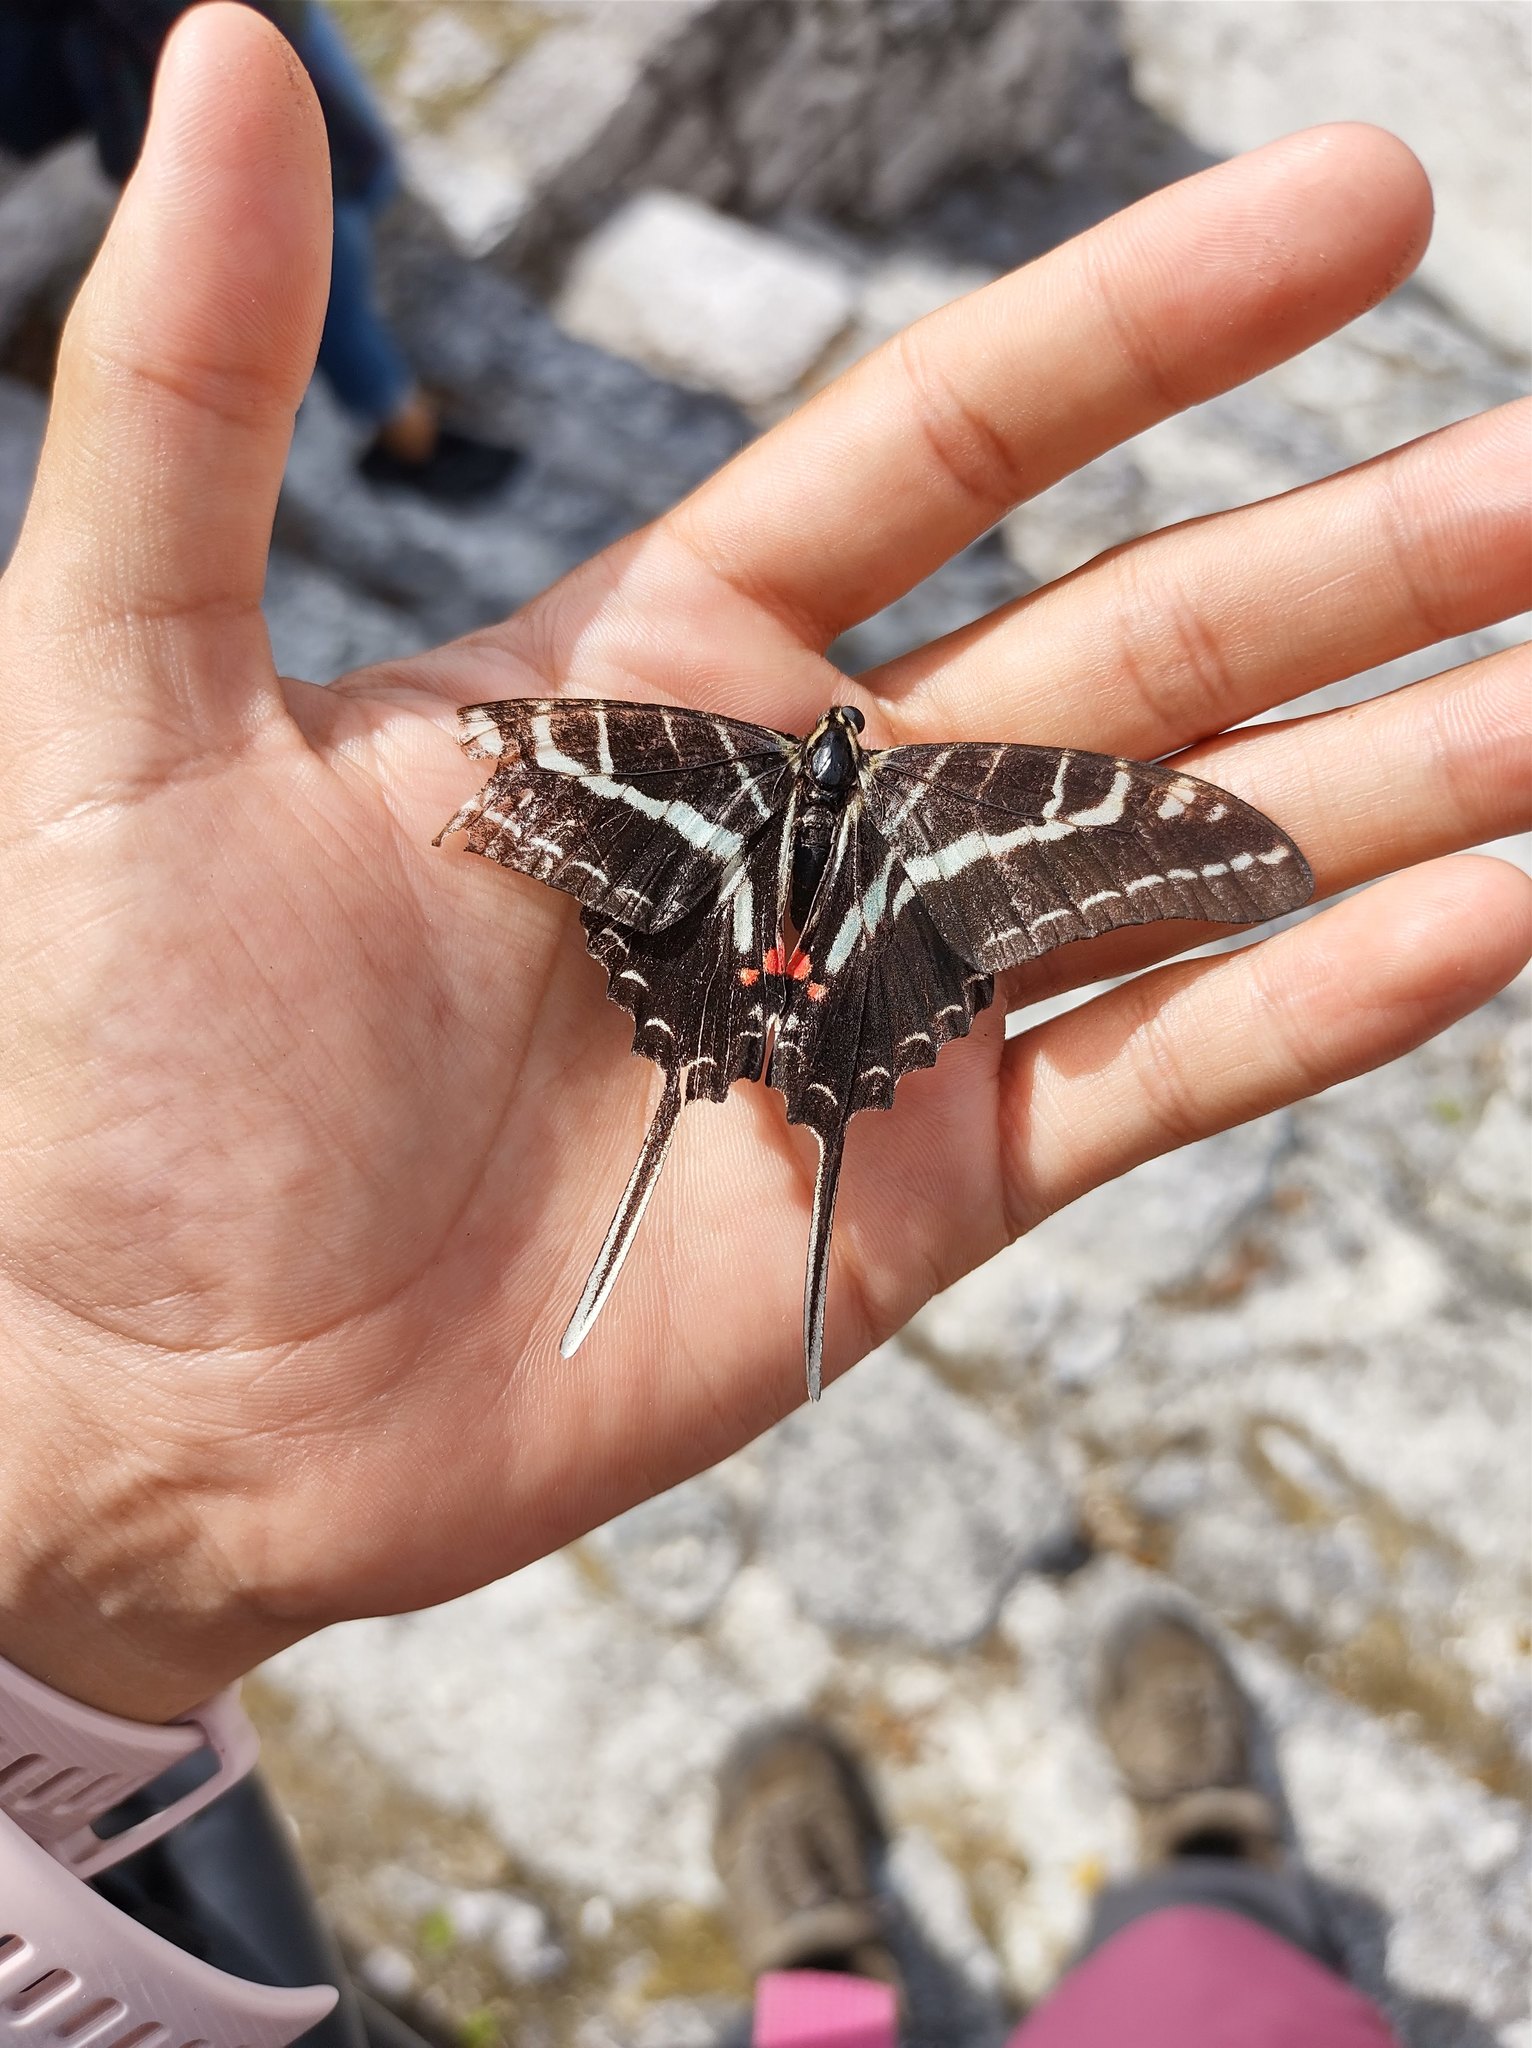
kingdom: Animalia
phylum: Arthropoda
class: Insecta
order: Lepidoptera
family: Papilionidae
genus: Protographium
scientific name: Protographium philolaus
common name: Dark zebra swallowtail
